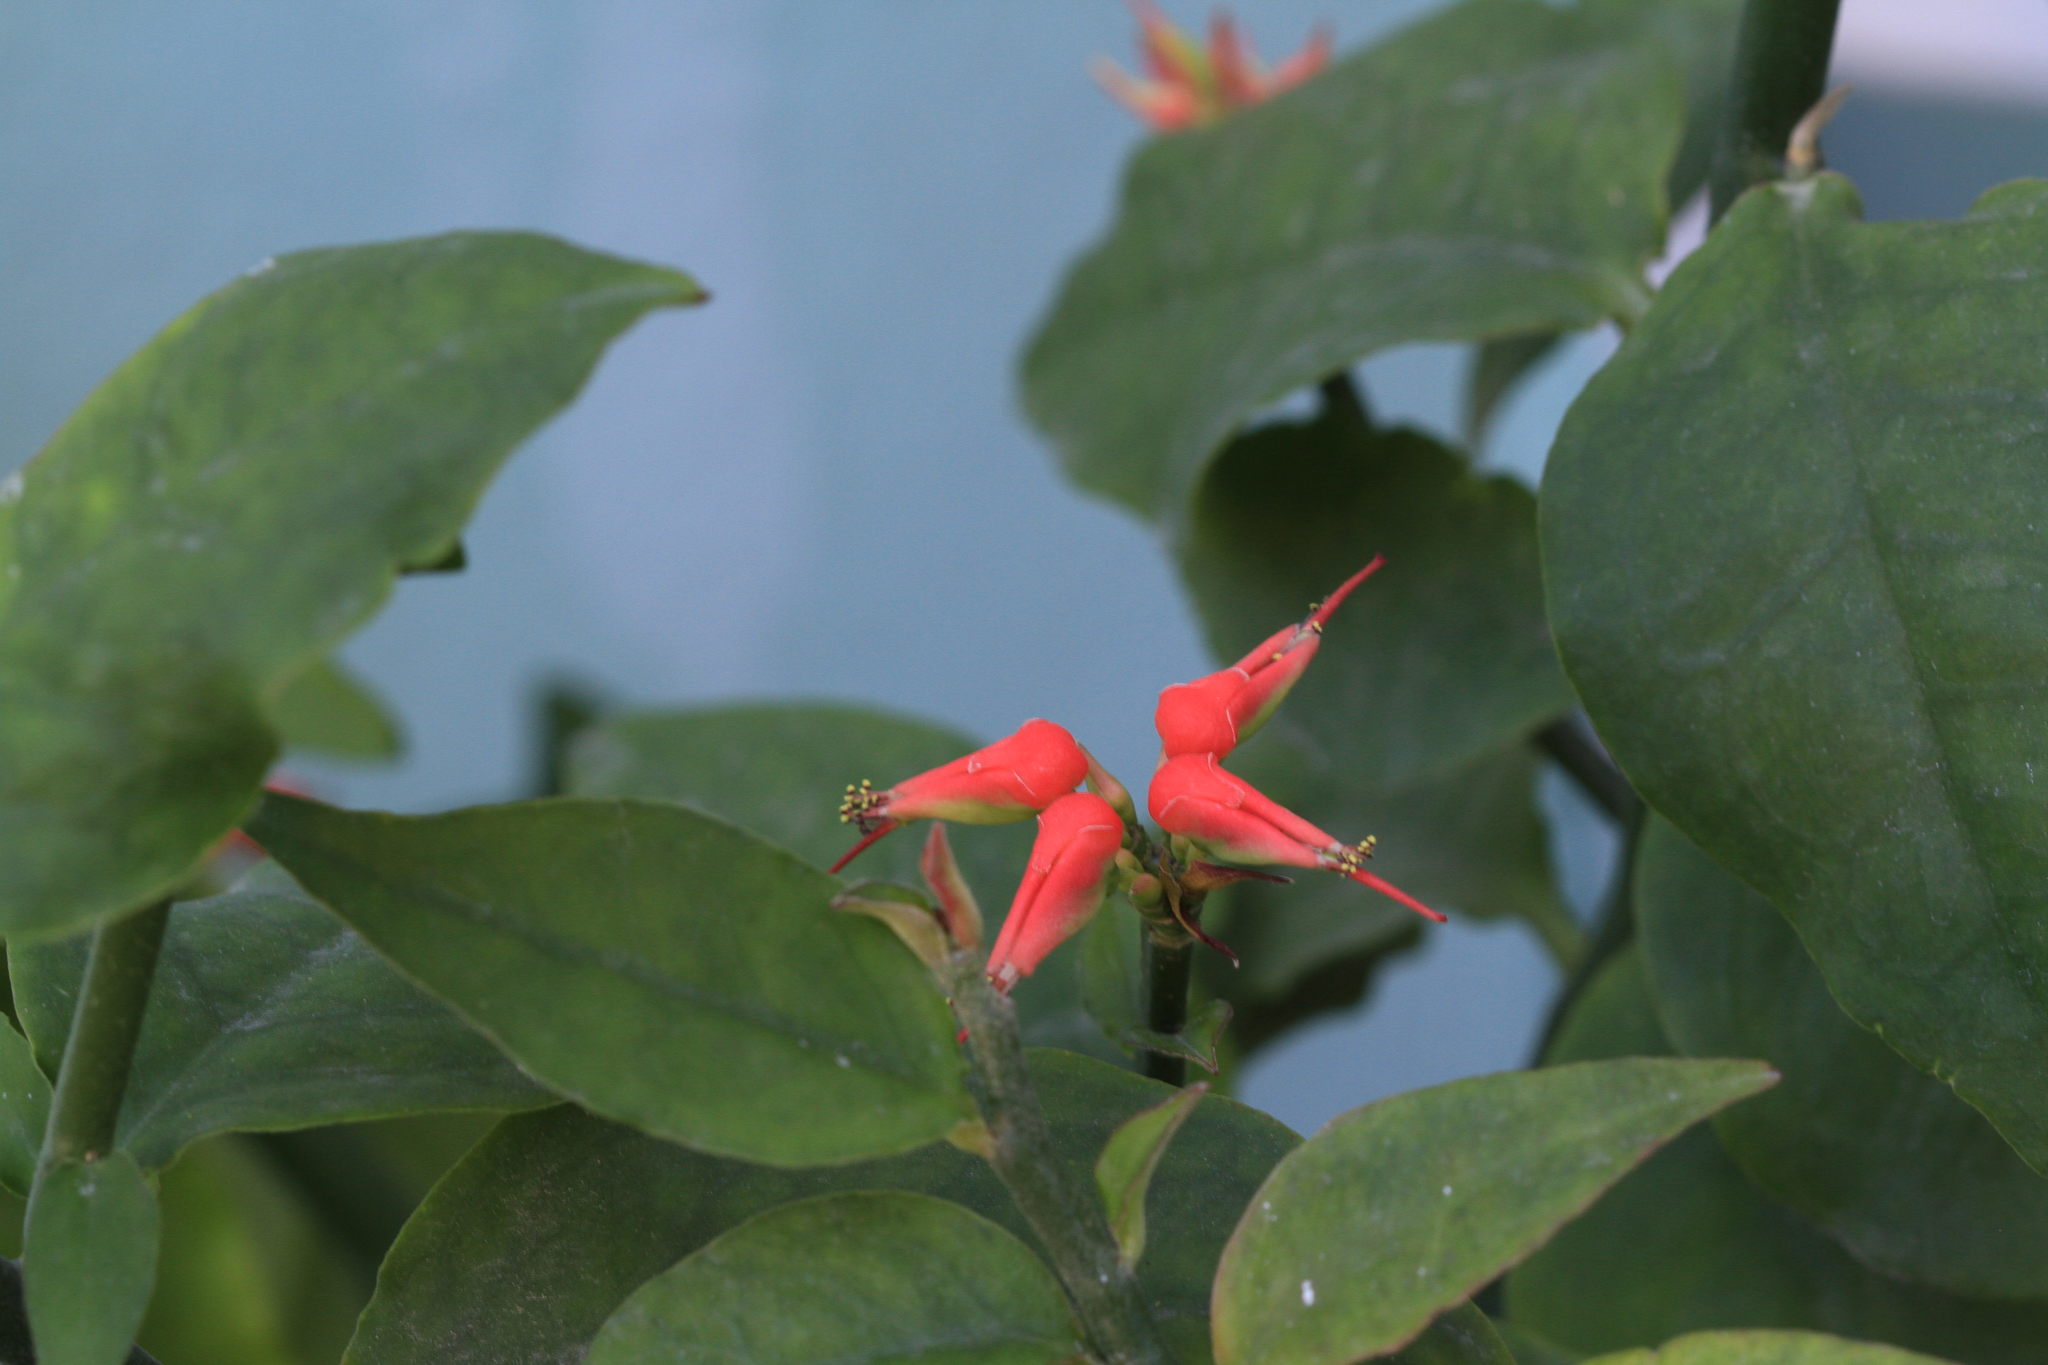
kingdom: Plantae
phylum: Tracheophyta
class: Magnoliopsida
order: Malpighiales
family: Euphorbiaceae
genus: Euphorbia
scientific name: Euphorbia tithymaloides
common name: Slipperplant
